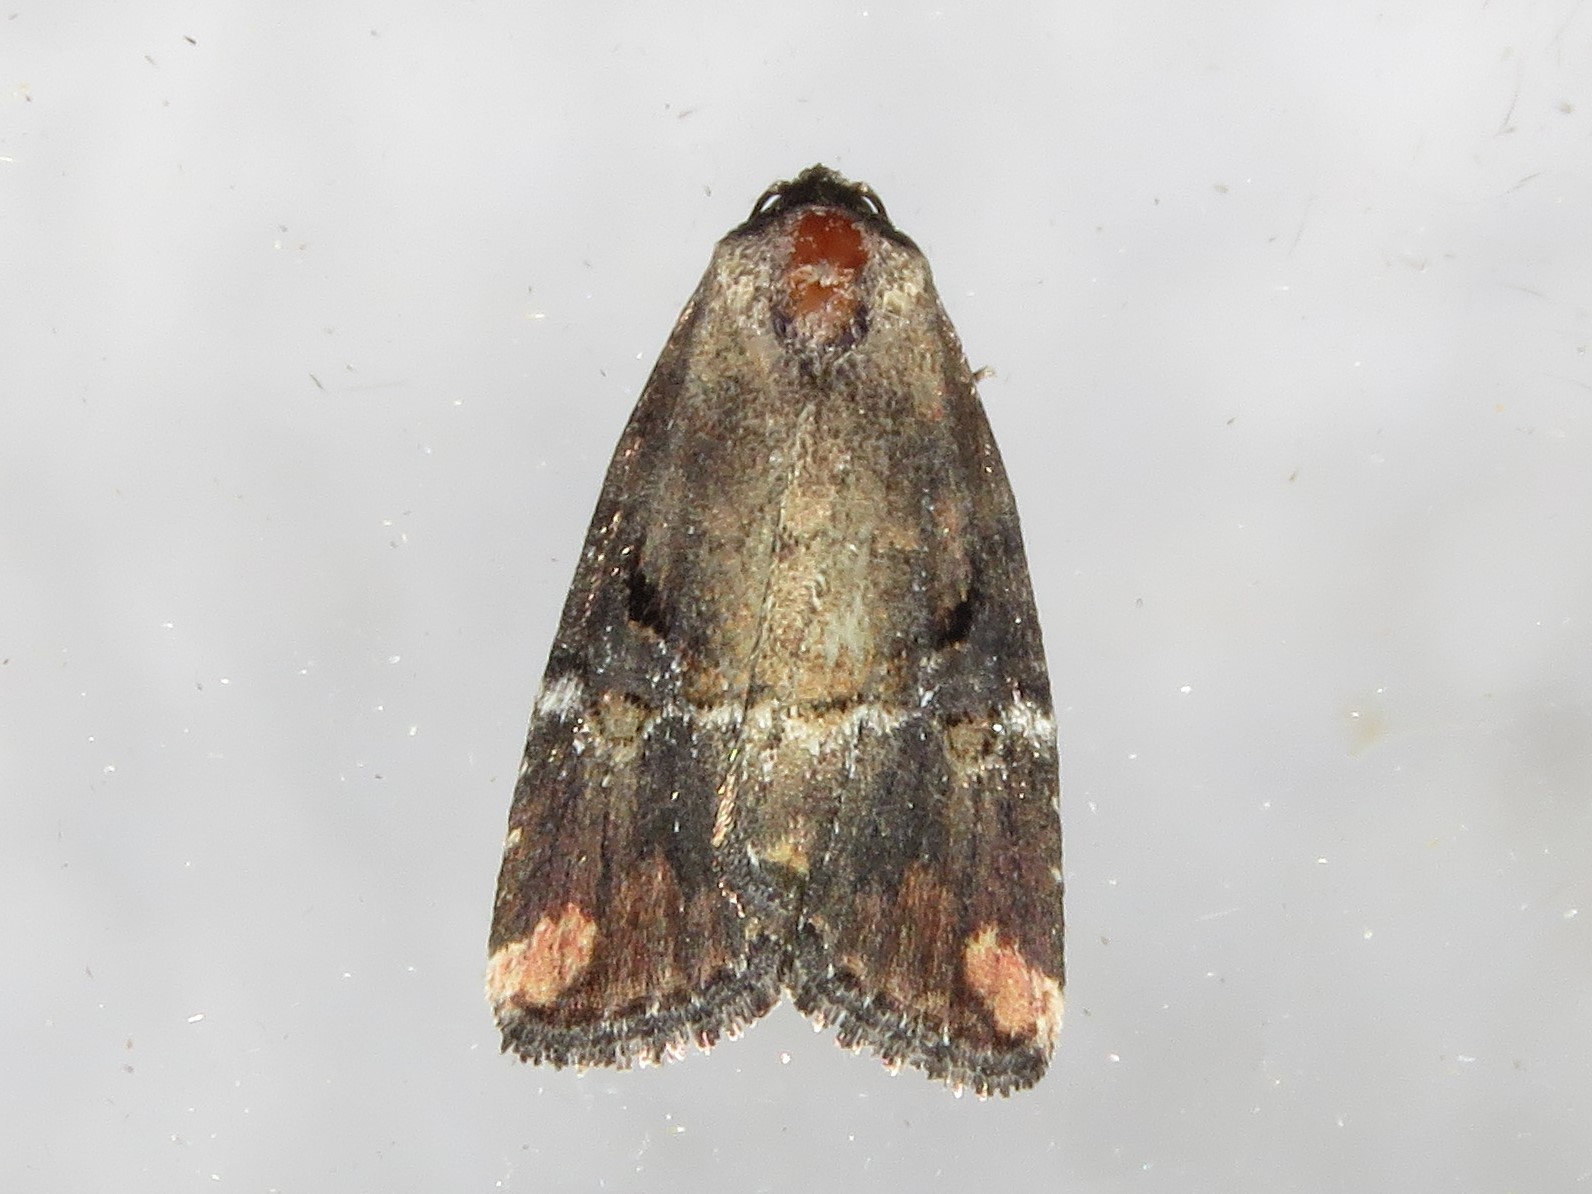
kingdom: Animalia
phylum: Arthropoda
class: Insecta
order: Lepidoptera
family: Noctuidae
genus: Elaphria
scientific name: Elaphria versicolor
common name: Fir harlequin
